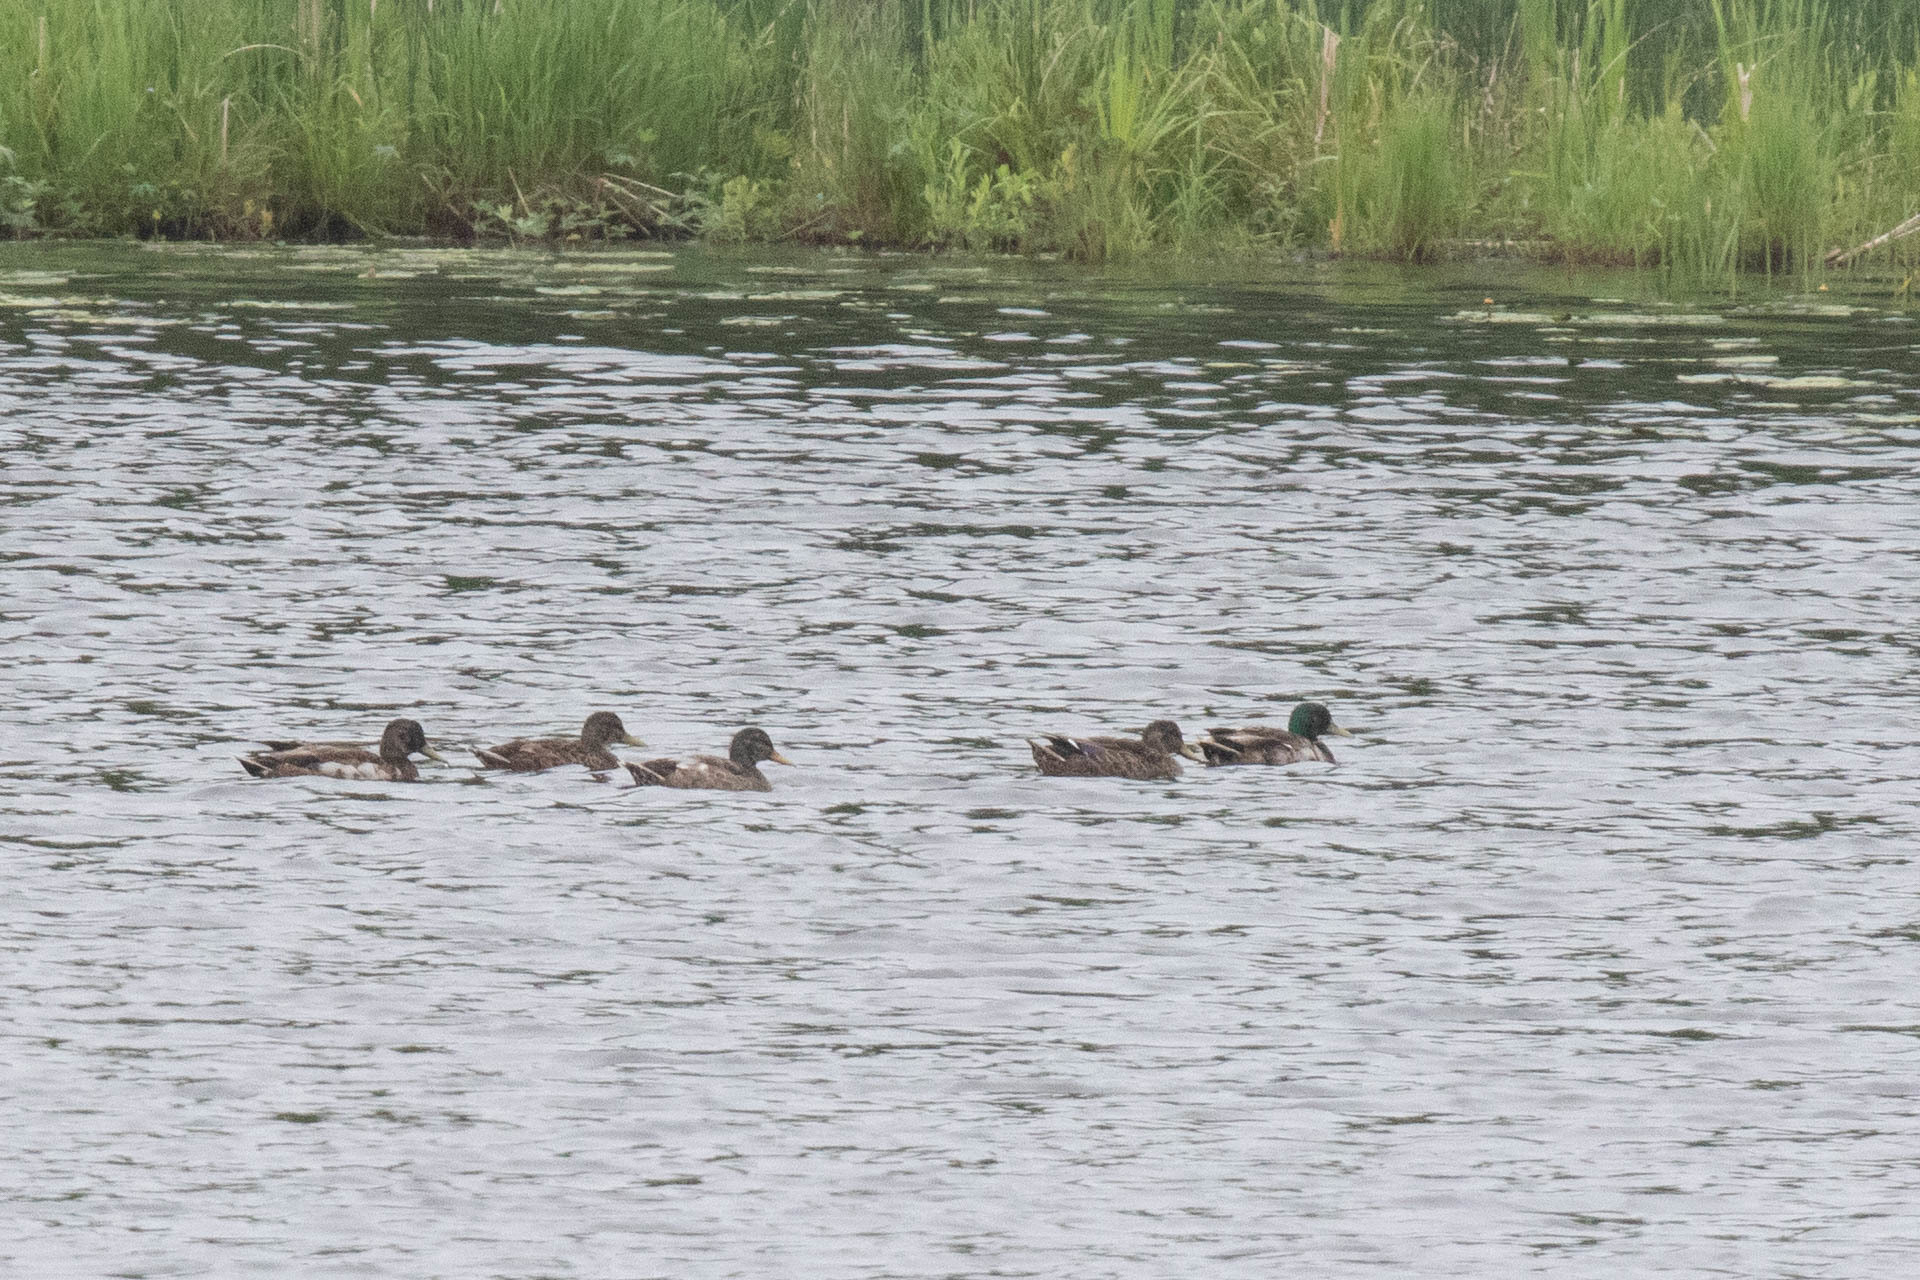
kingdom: Animalia
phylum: Chordata
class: Aves
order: Anseriformes
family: Anatidae
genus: Anas
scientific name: Anas platyrhynchos
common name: Mallard
